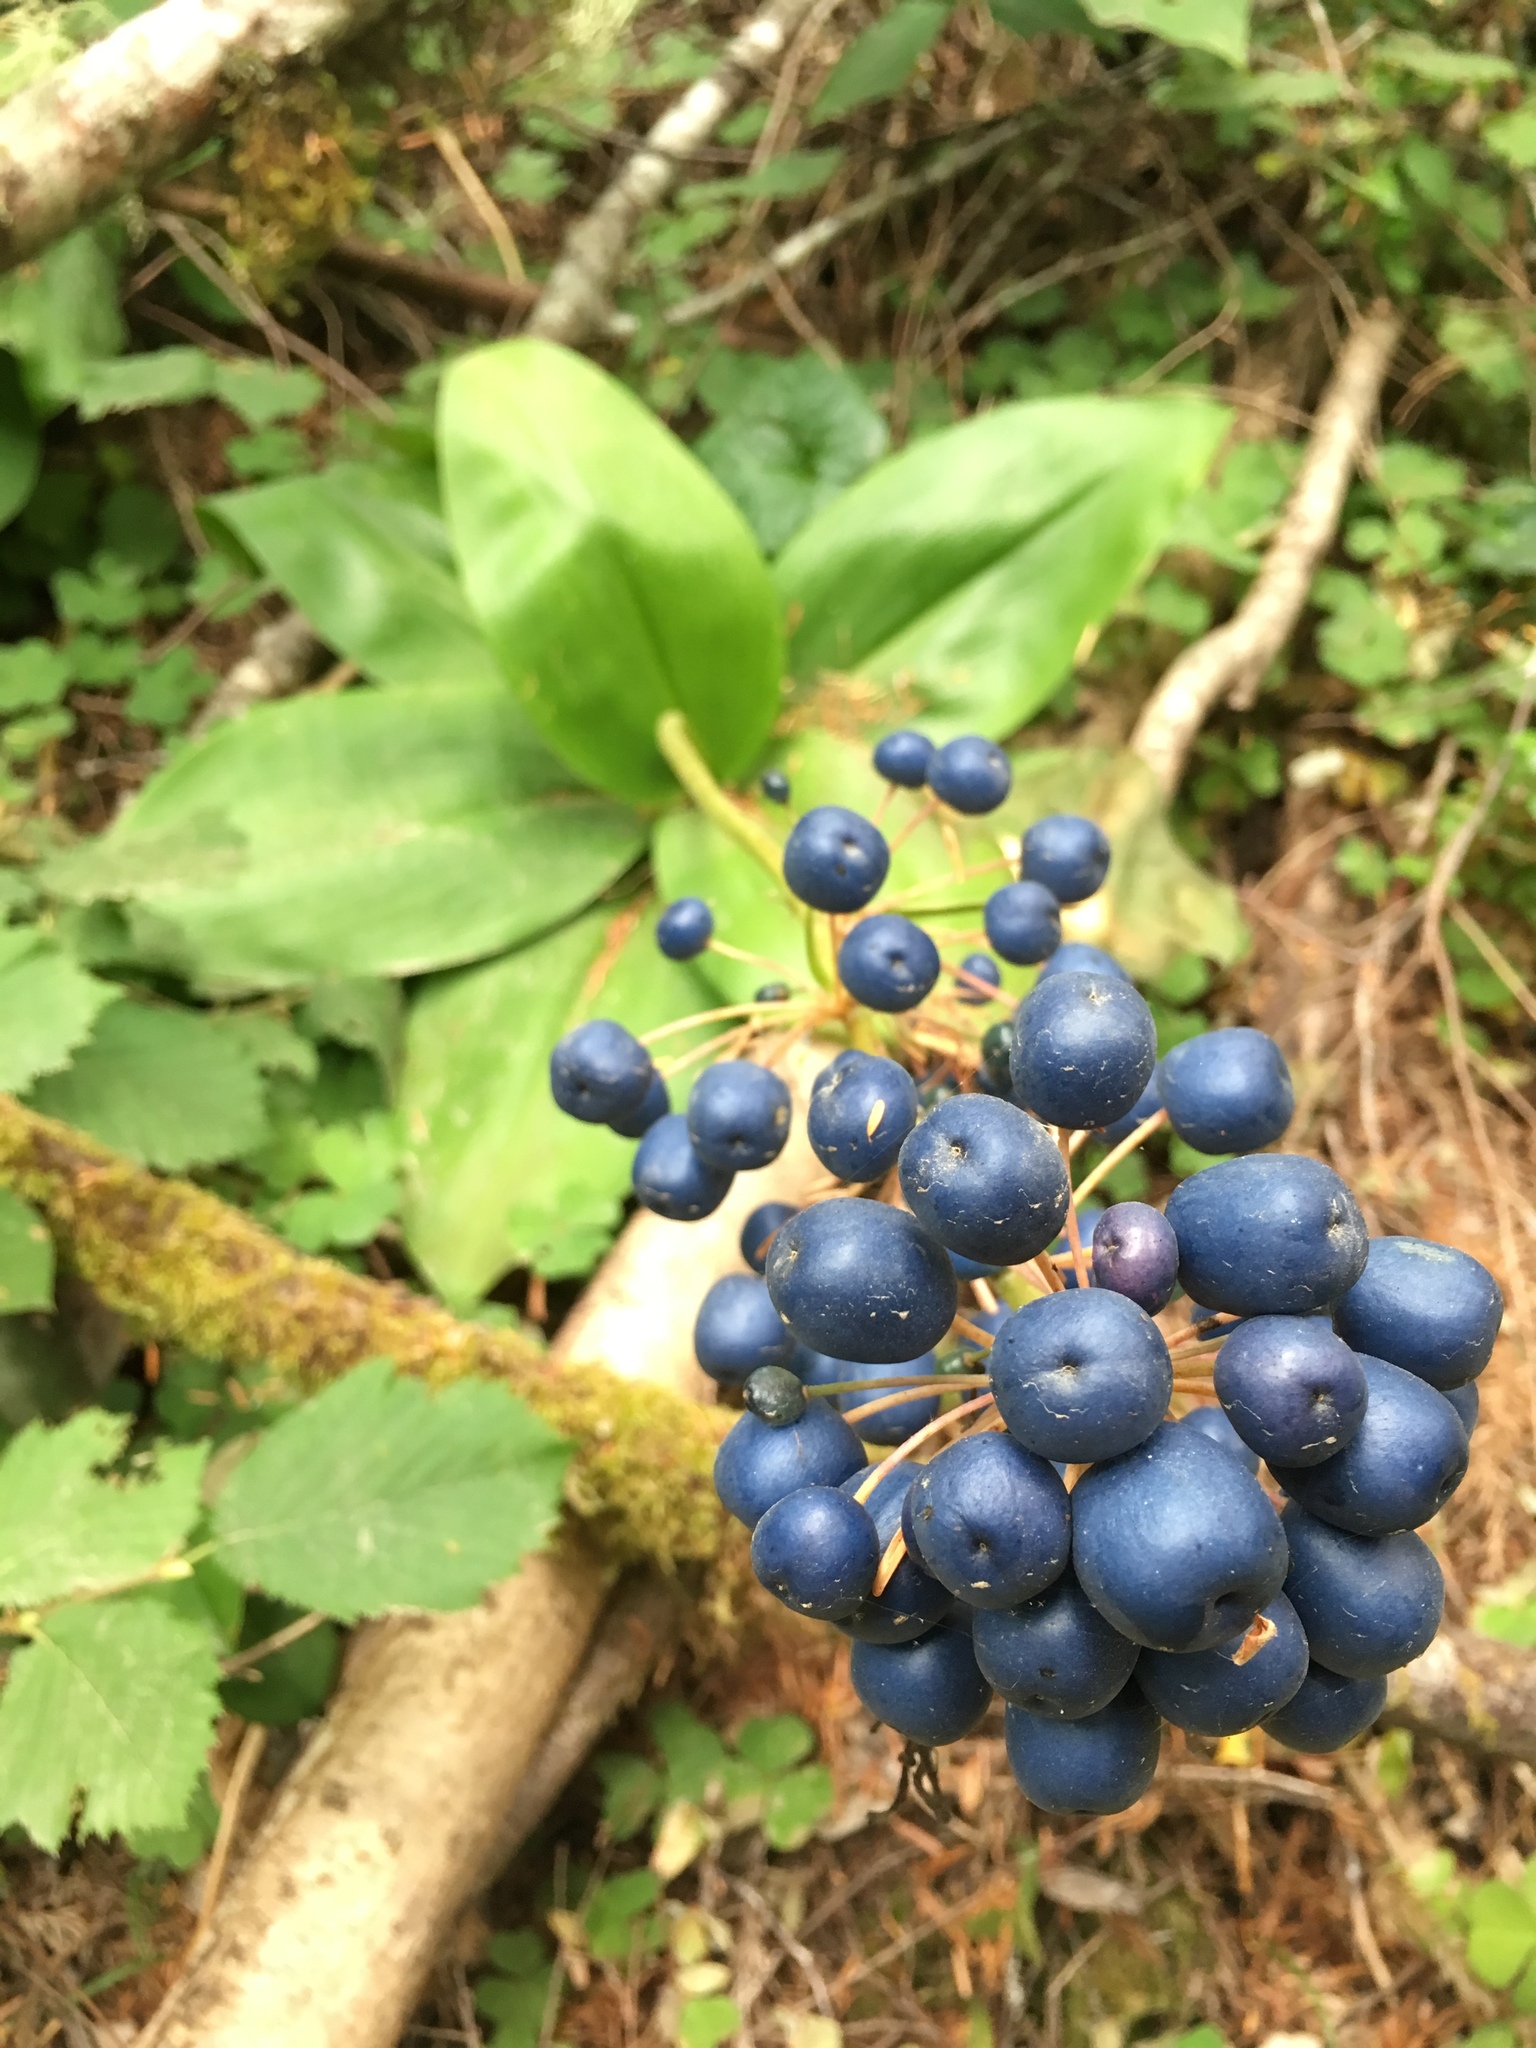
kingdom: Plantae
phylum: Tracheophyta
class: Liliopsida
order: Liliales
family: Liliaceae
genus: Clintonia
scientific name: Clintonia andrewsiana
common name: Red clintonia
